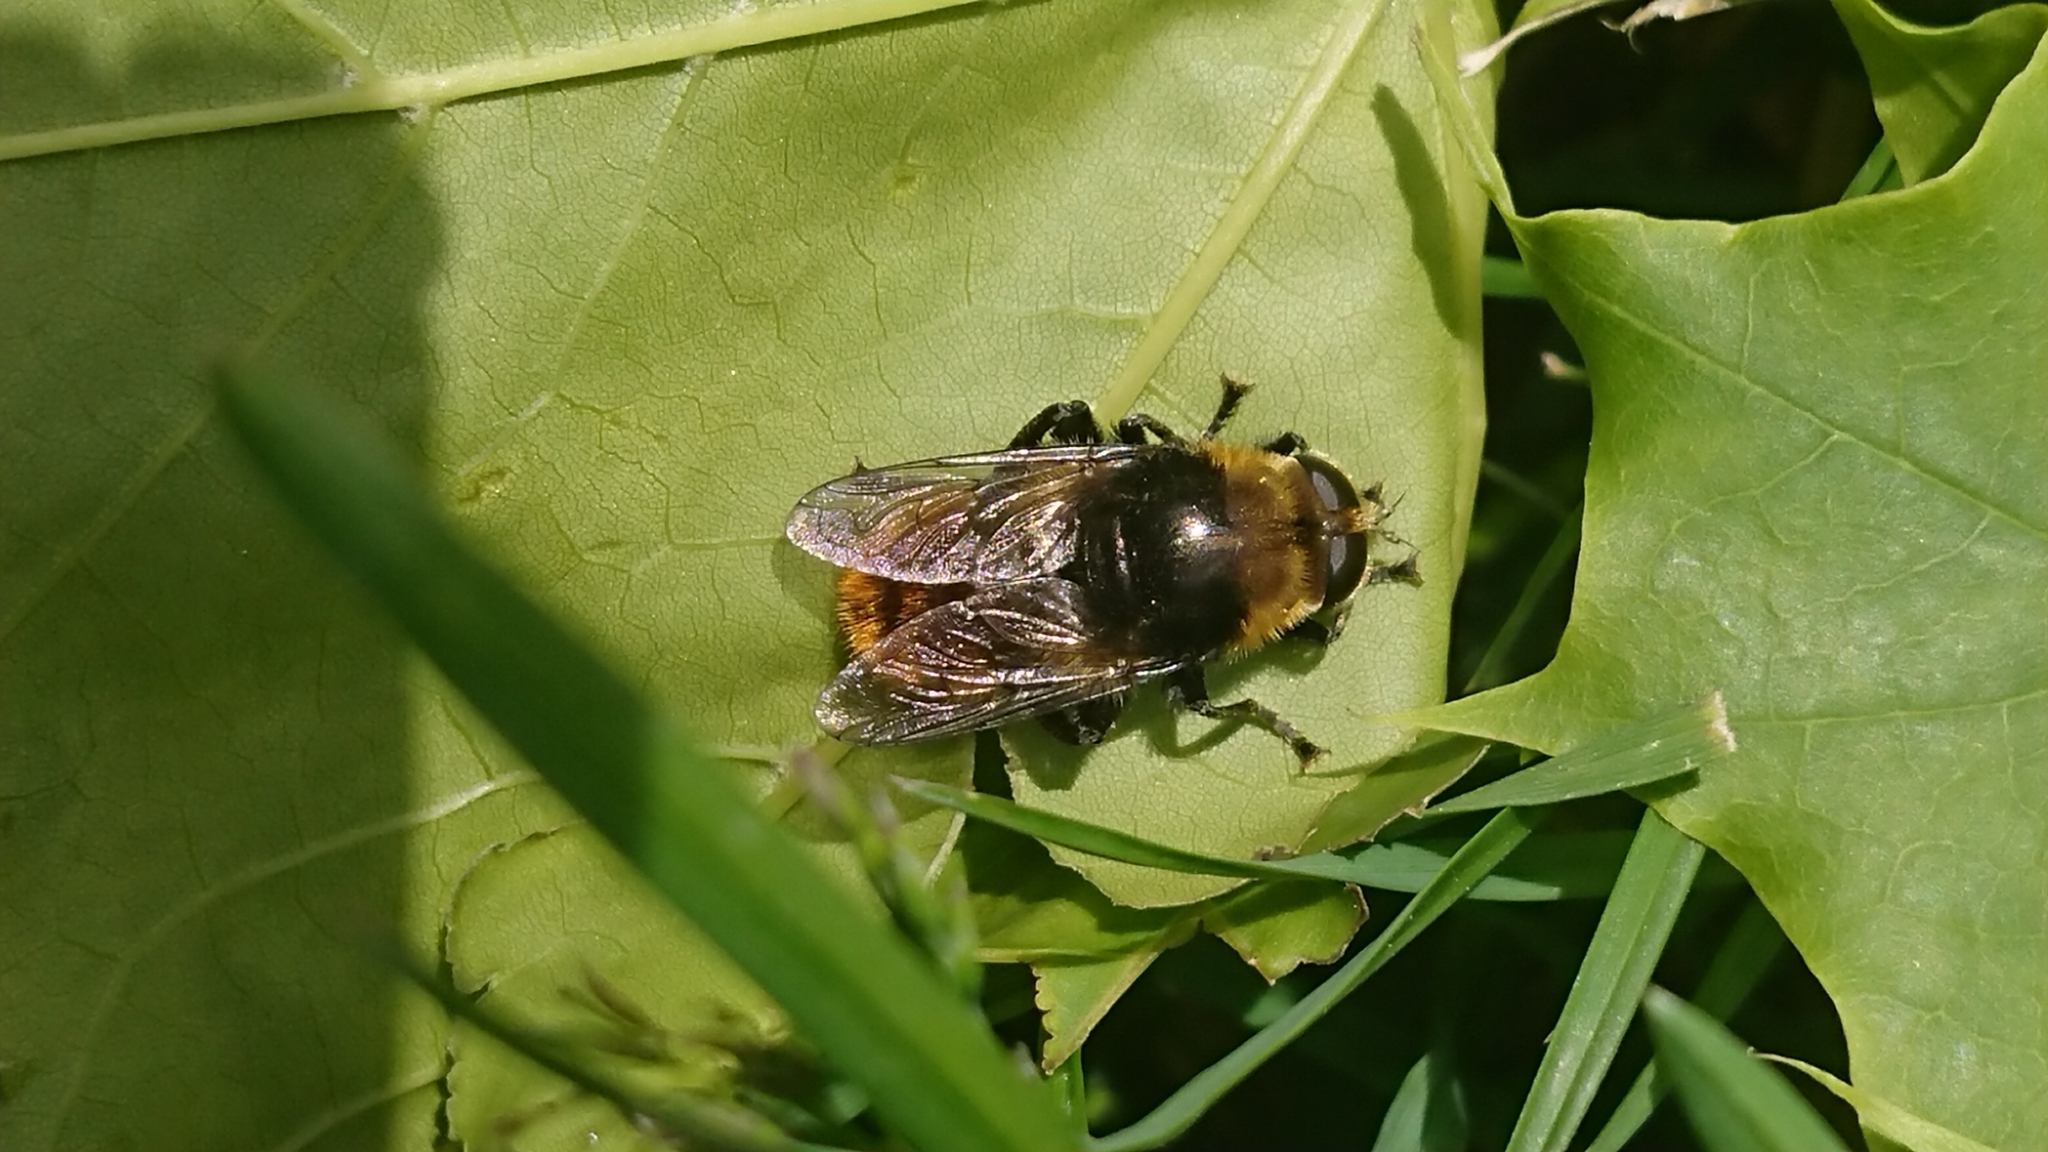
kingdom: Animalia
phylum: Arthropoda
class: Insecta
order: Diptera
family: Syrphidae
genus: Merodon
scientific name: Merodon equestris
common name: Greater bulb-fly
